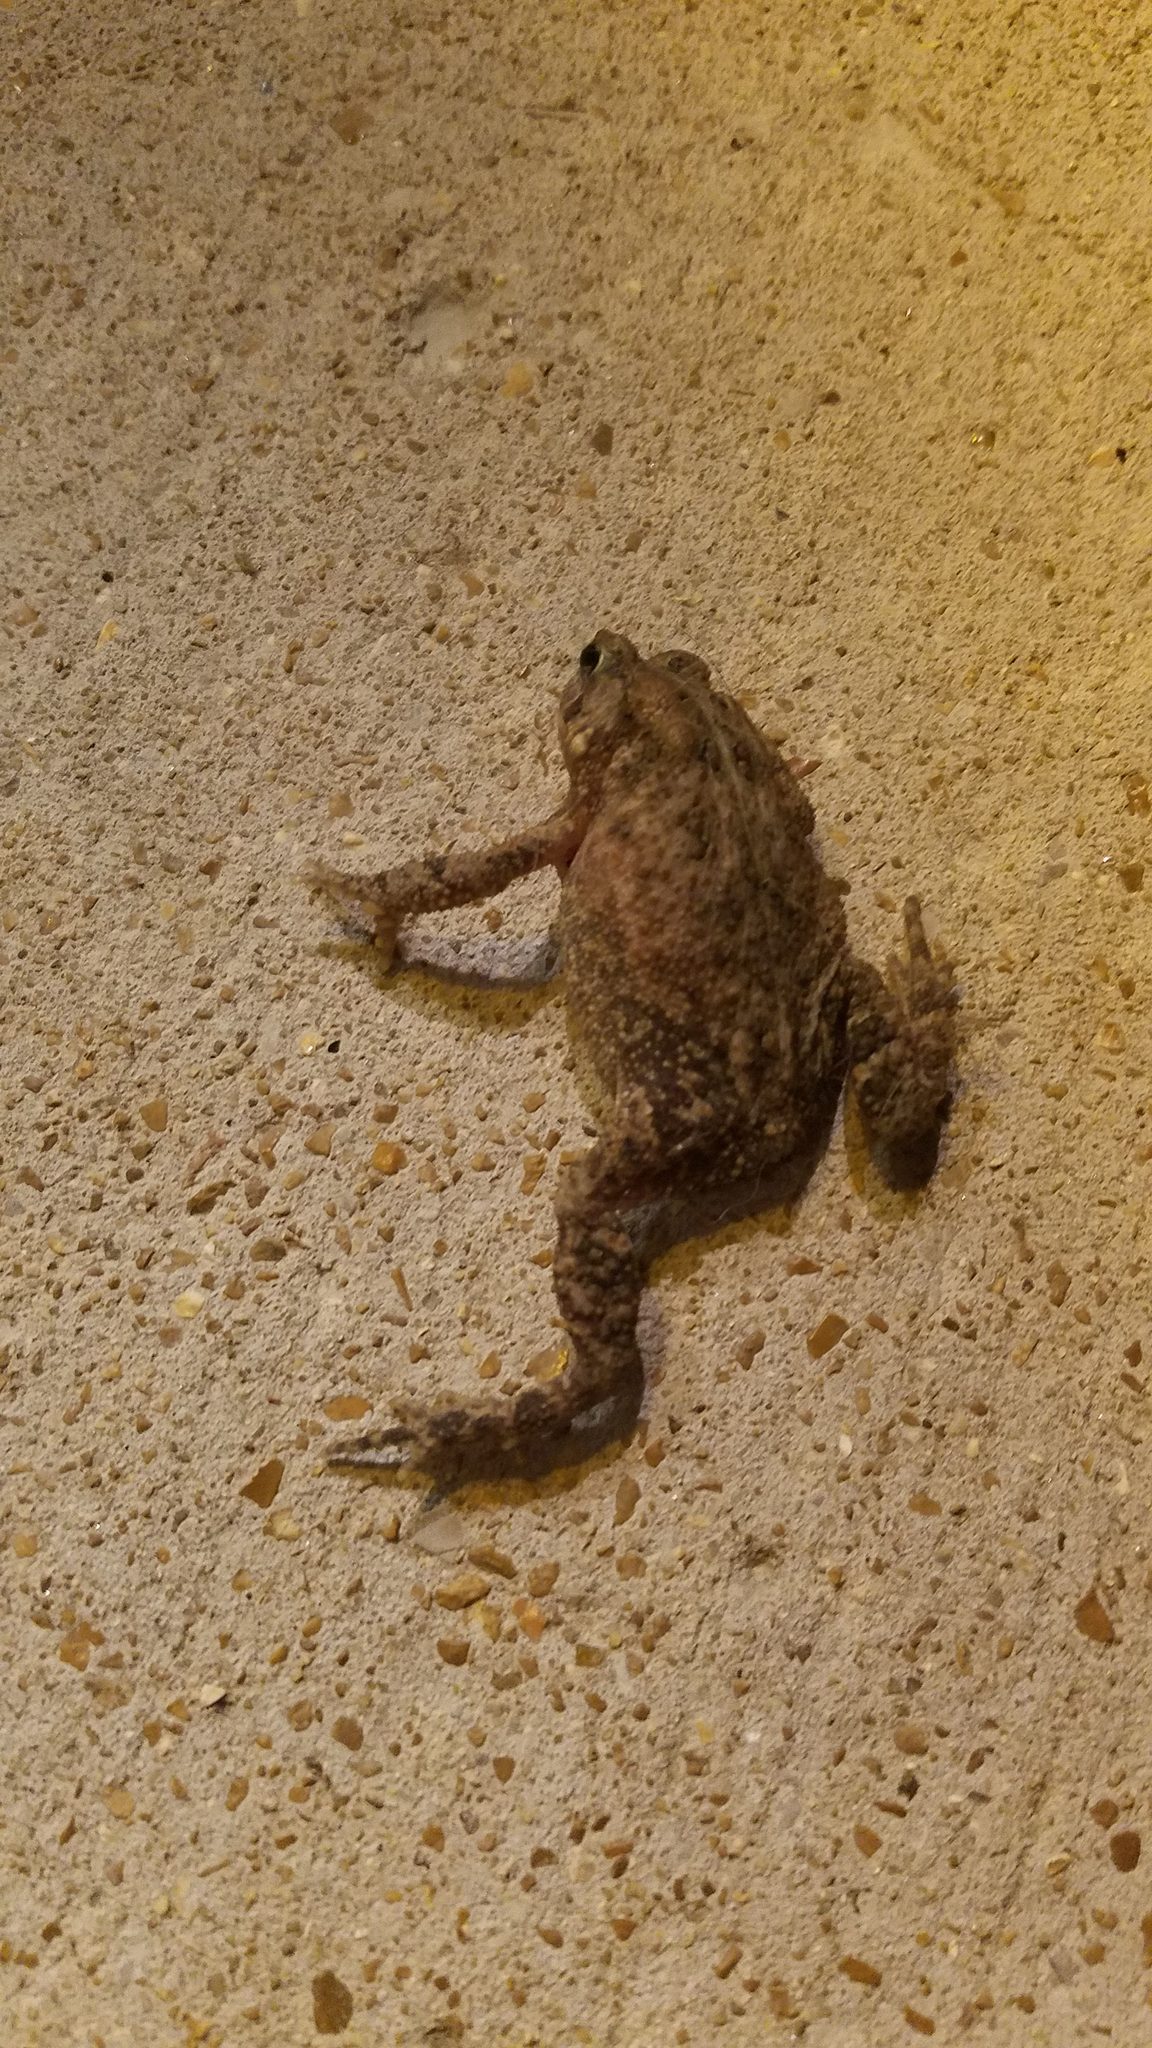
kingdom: Animalia
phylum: Chordata
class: Amphibia
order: Anura
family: Bufonidae
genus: Anaxyrus
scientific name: Anaxyrus americanus
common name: American toad
